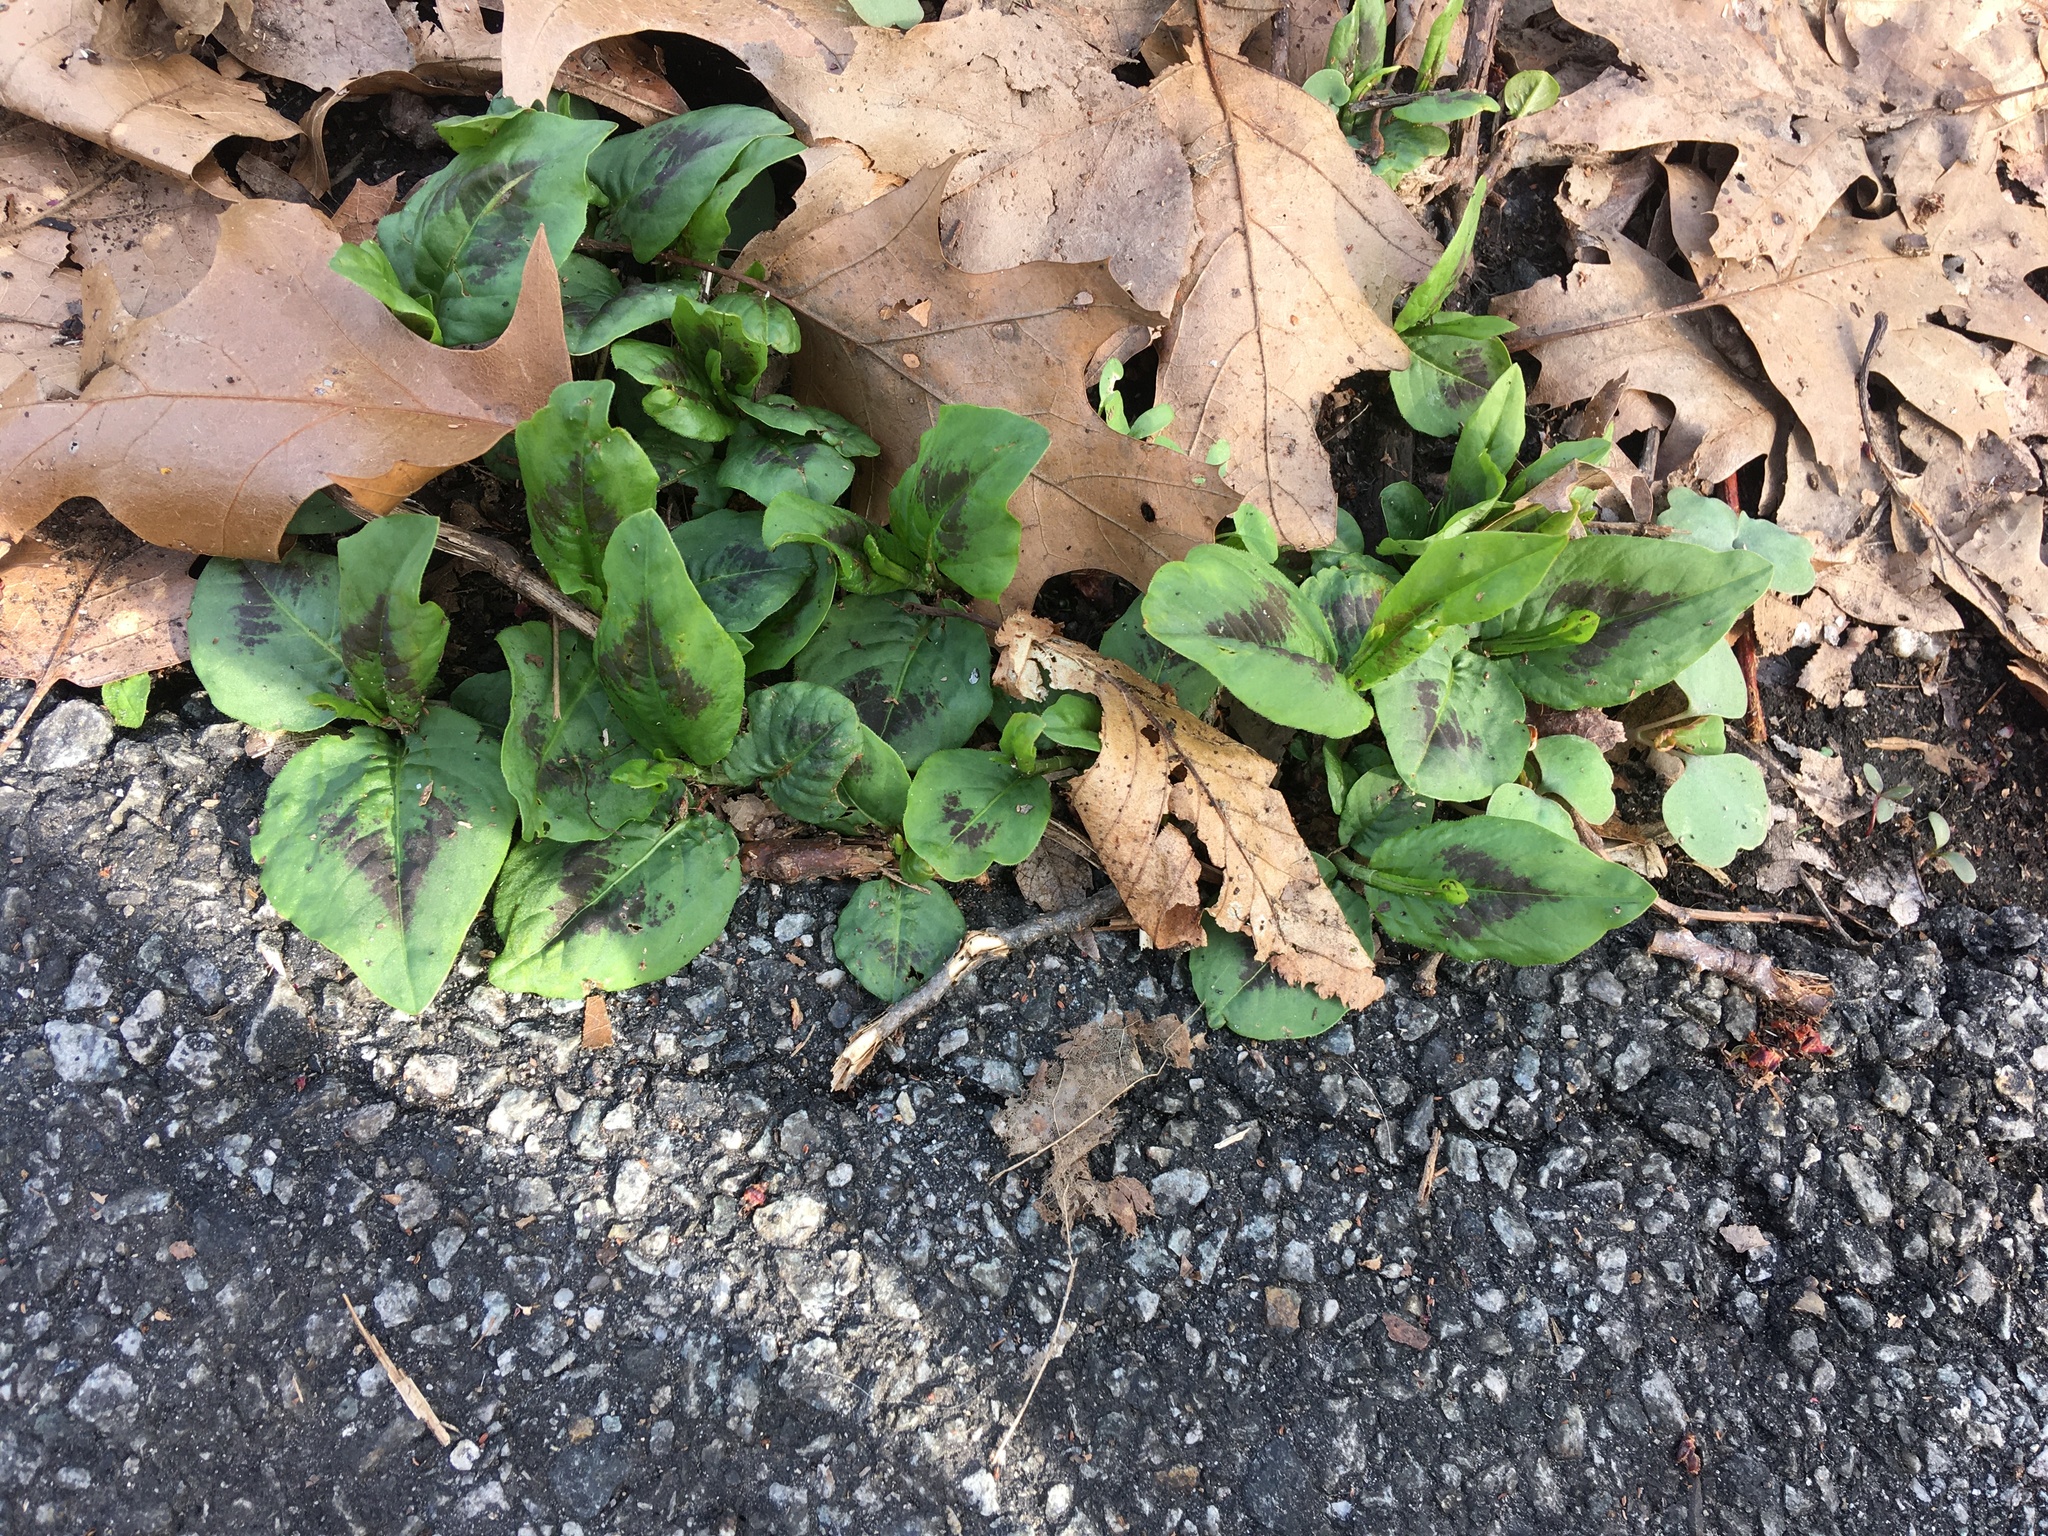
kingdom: Plantae
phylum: Tracheophyta
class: Magnoliopsida
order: Caryophyllales
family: Polygonaceae
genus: Persicaria
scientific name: Persicaria virginiana
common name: Jumpseed
